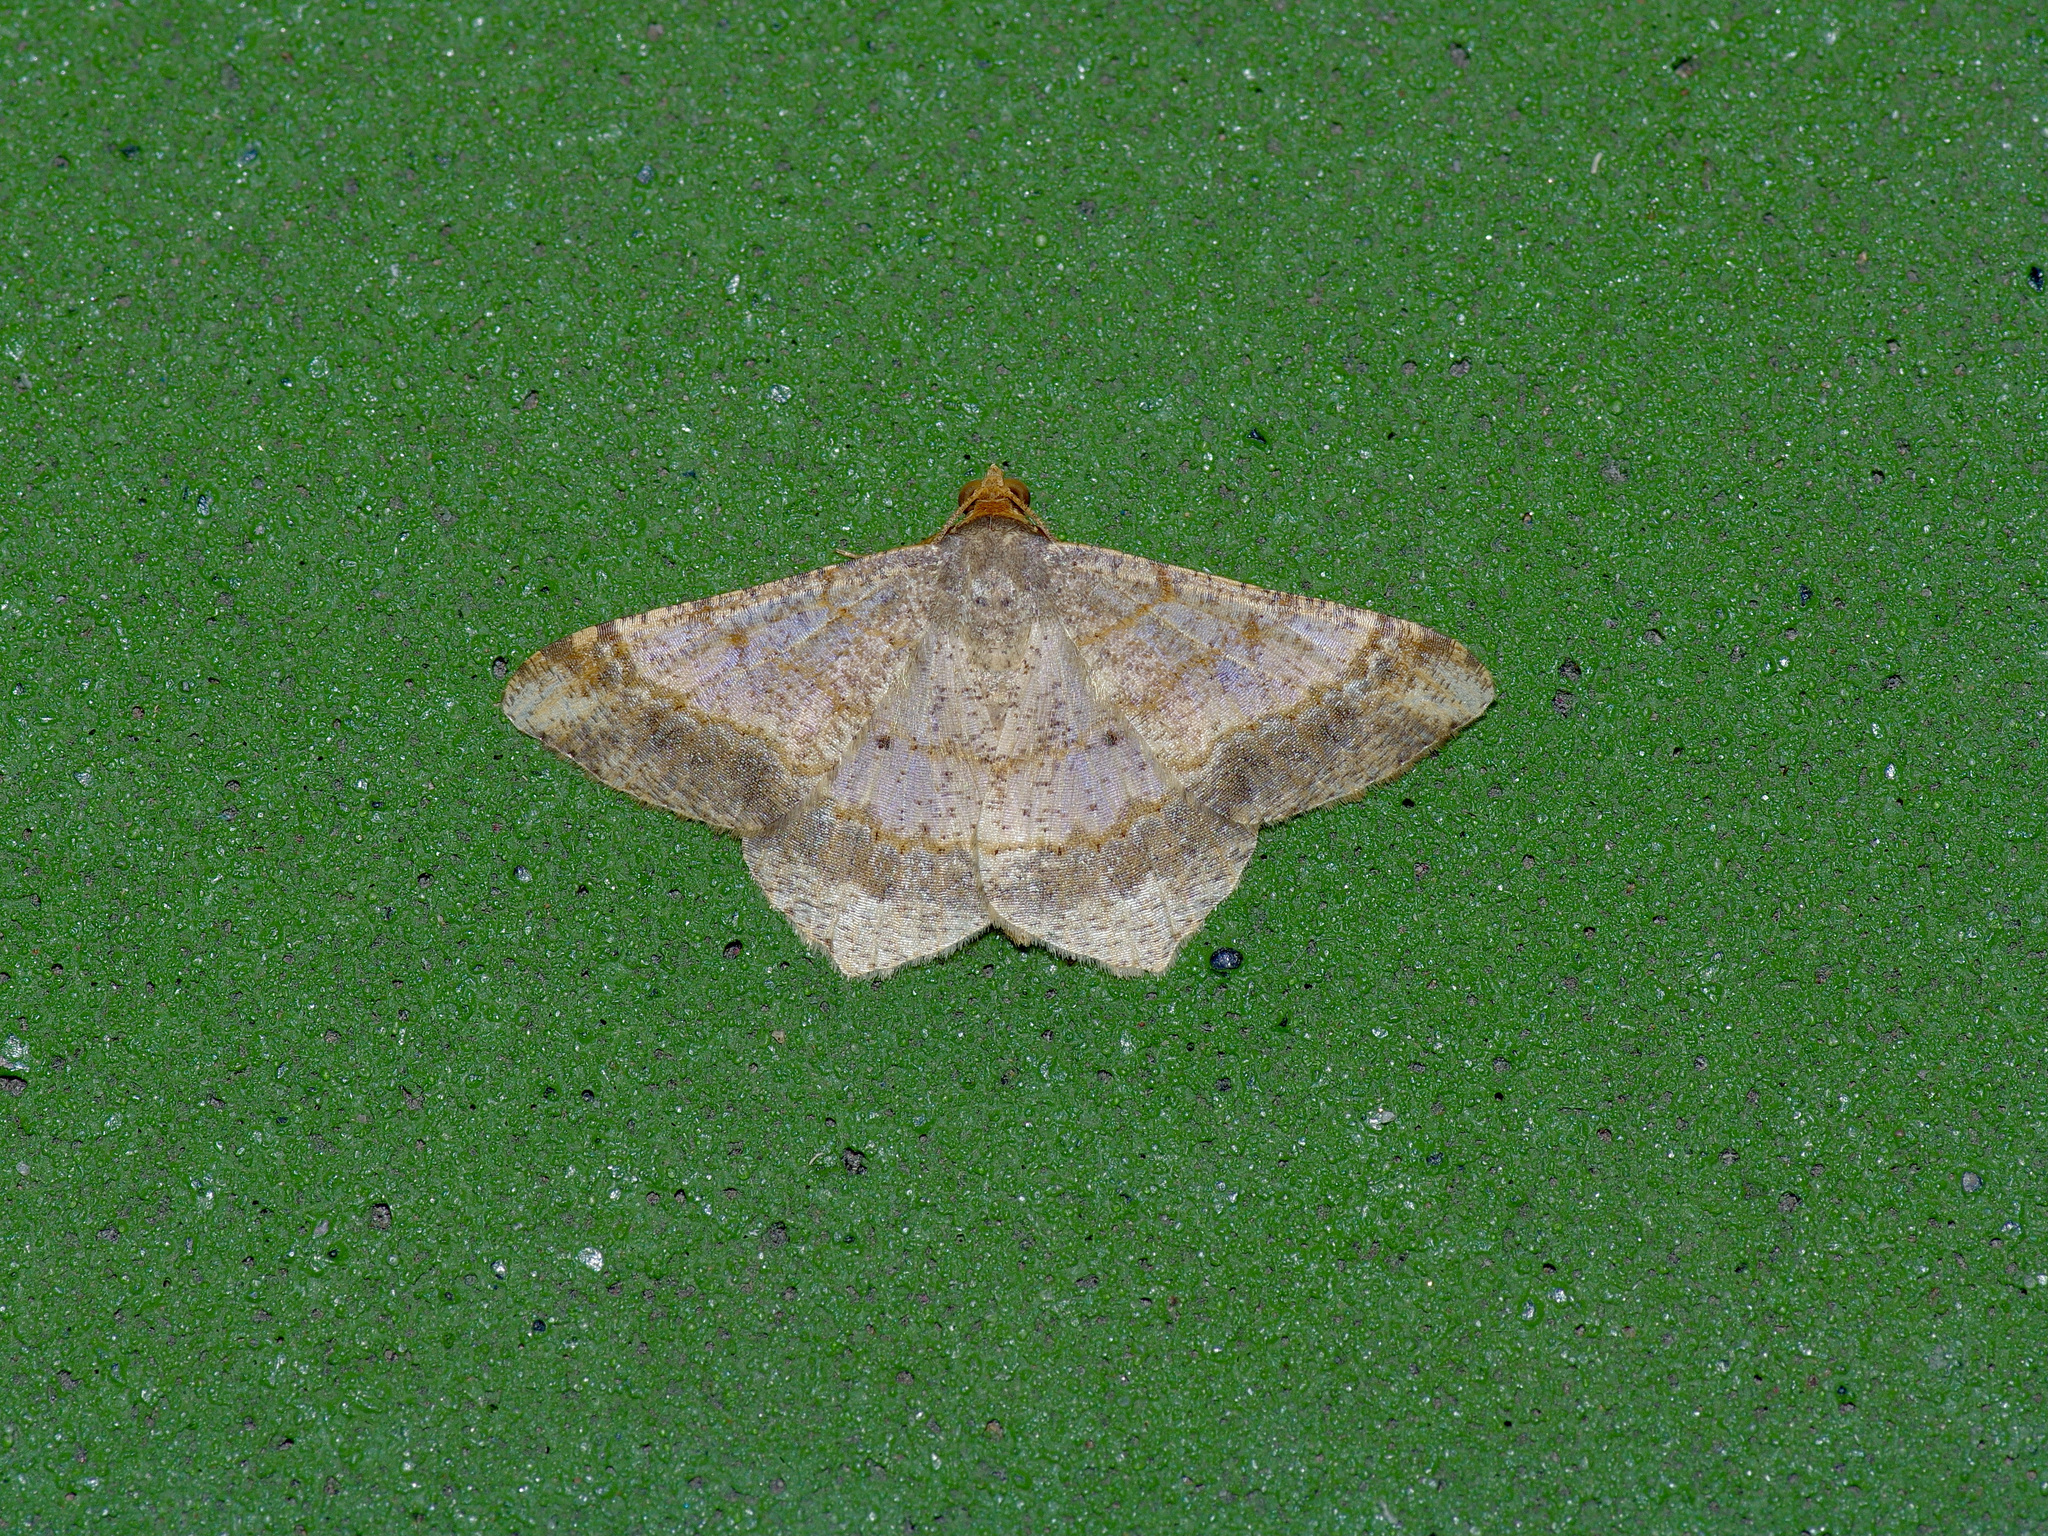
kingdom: Animalia
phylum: Arthropoda
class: Insecta
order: Lepidoptera
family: Geometridae
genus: Macaria
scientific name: Macaria abydata
